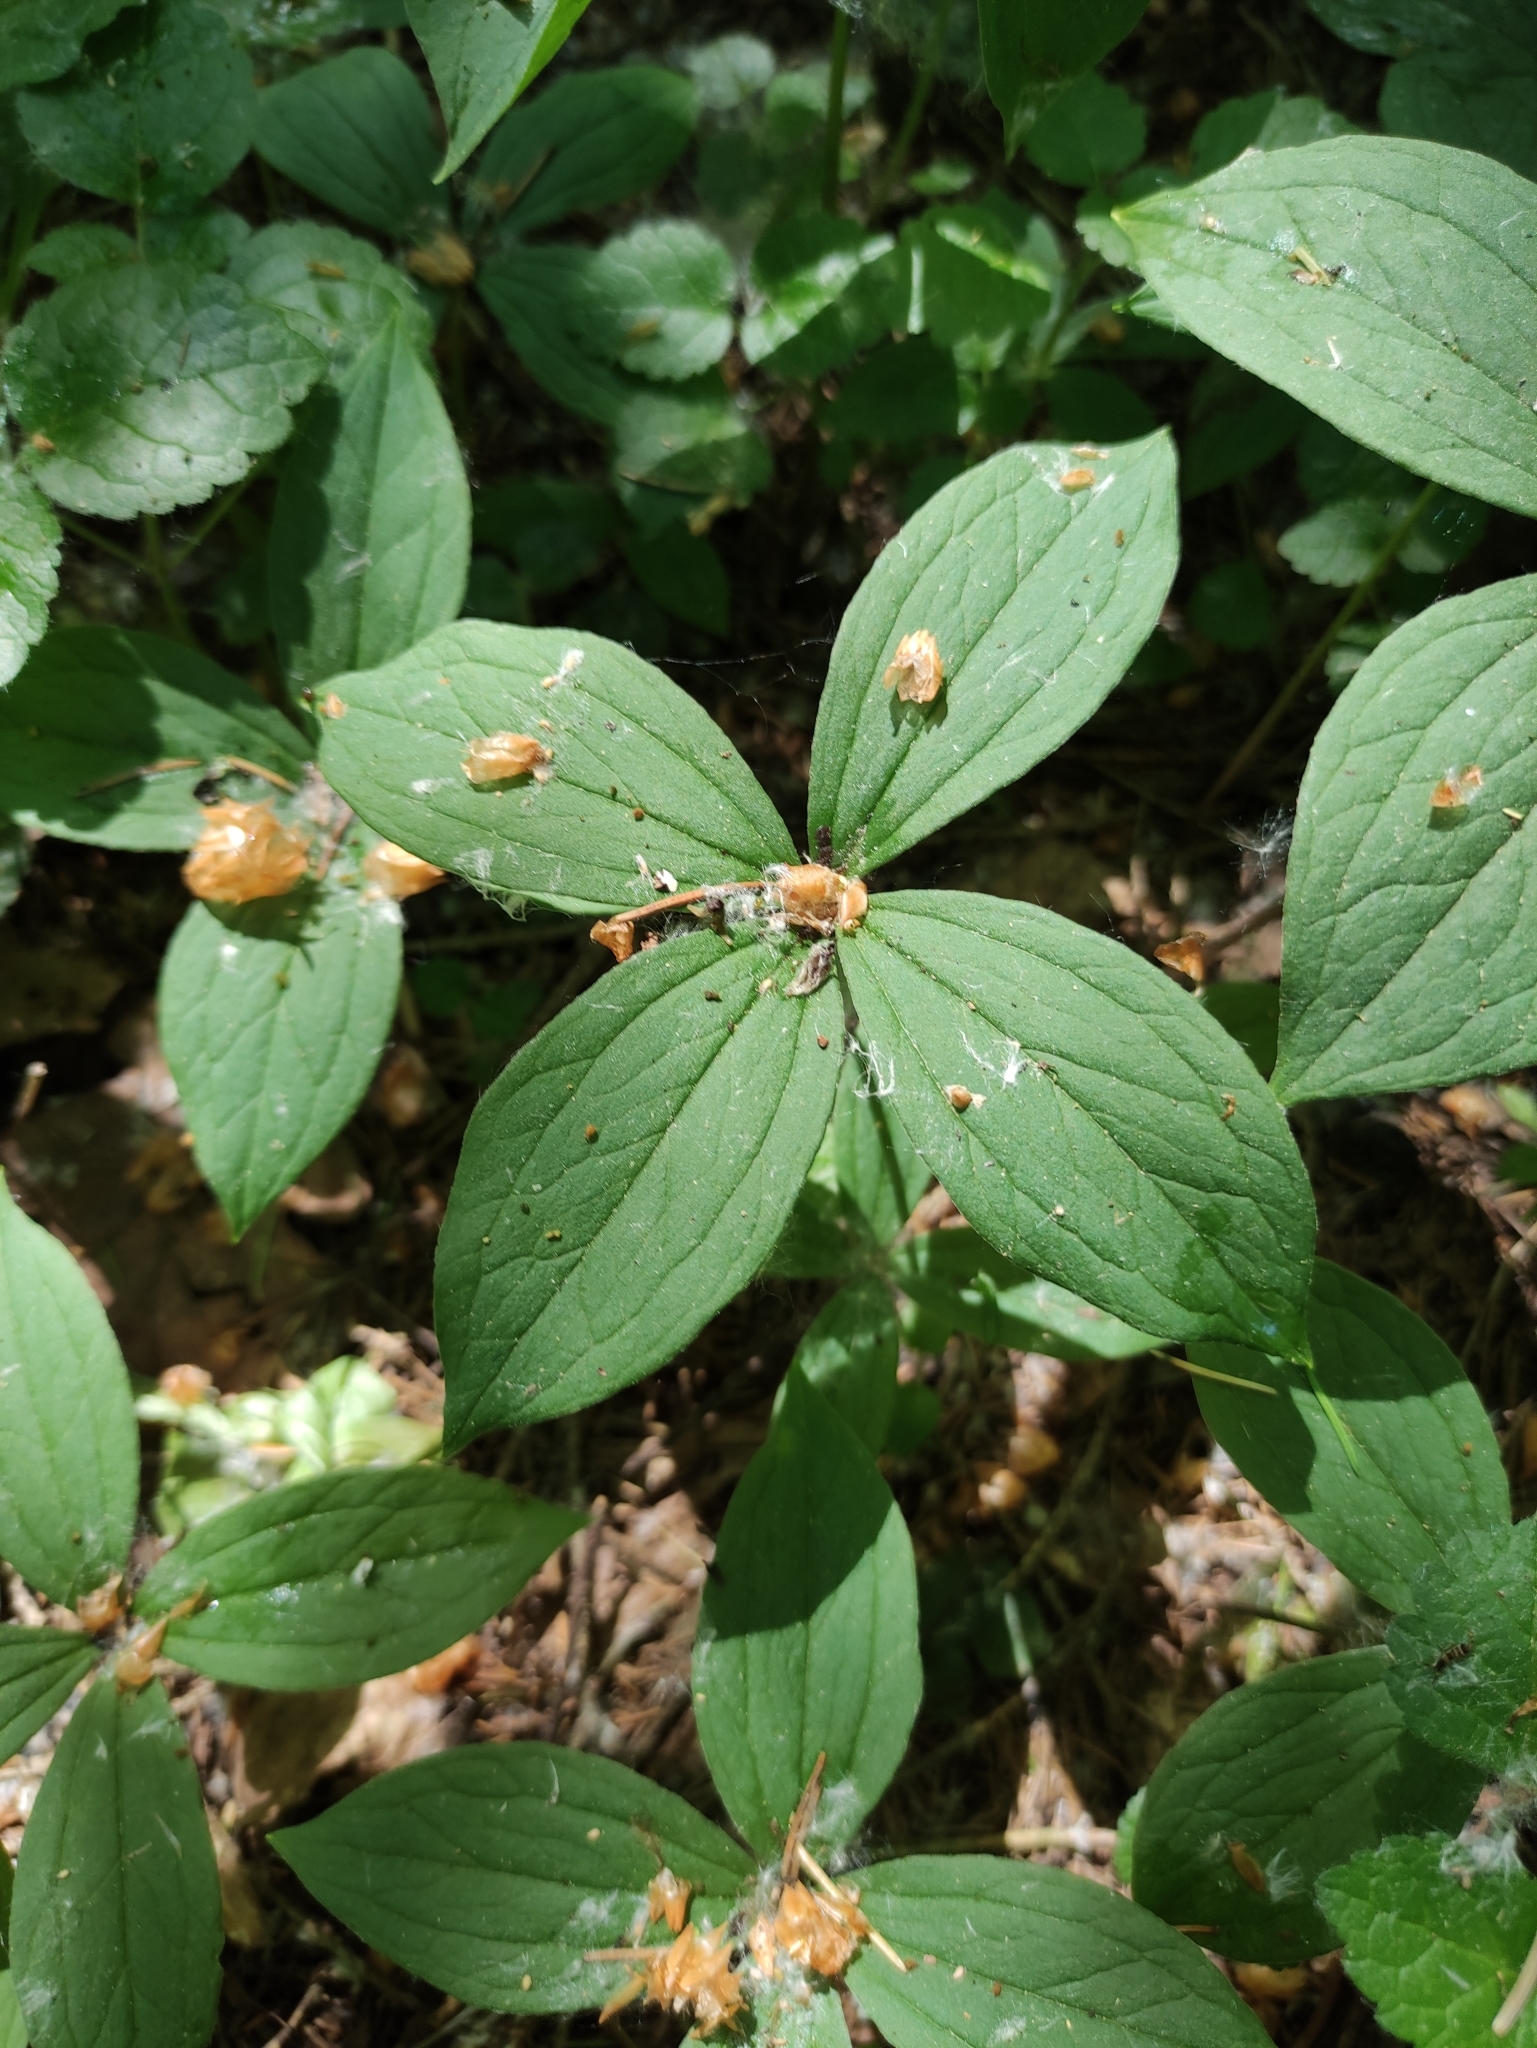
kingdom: Plantae
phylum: Tracheophyta
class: Liliopsida
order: Liliales
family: Melanthiaceae
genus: Paris
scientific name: Paris quadrifolia
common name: Herb-paris
